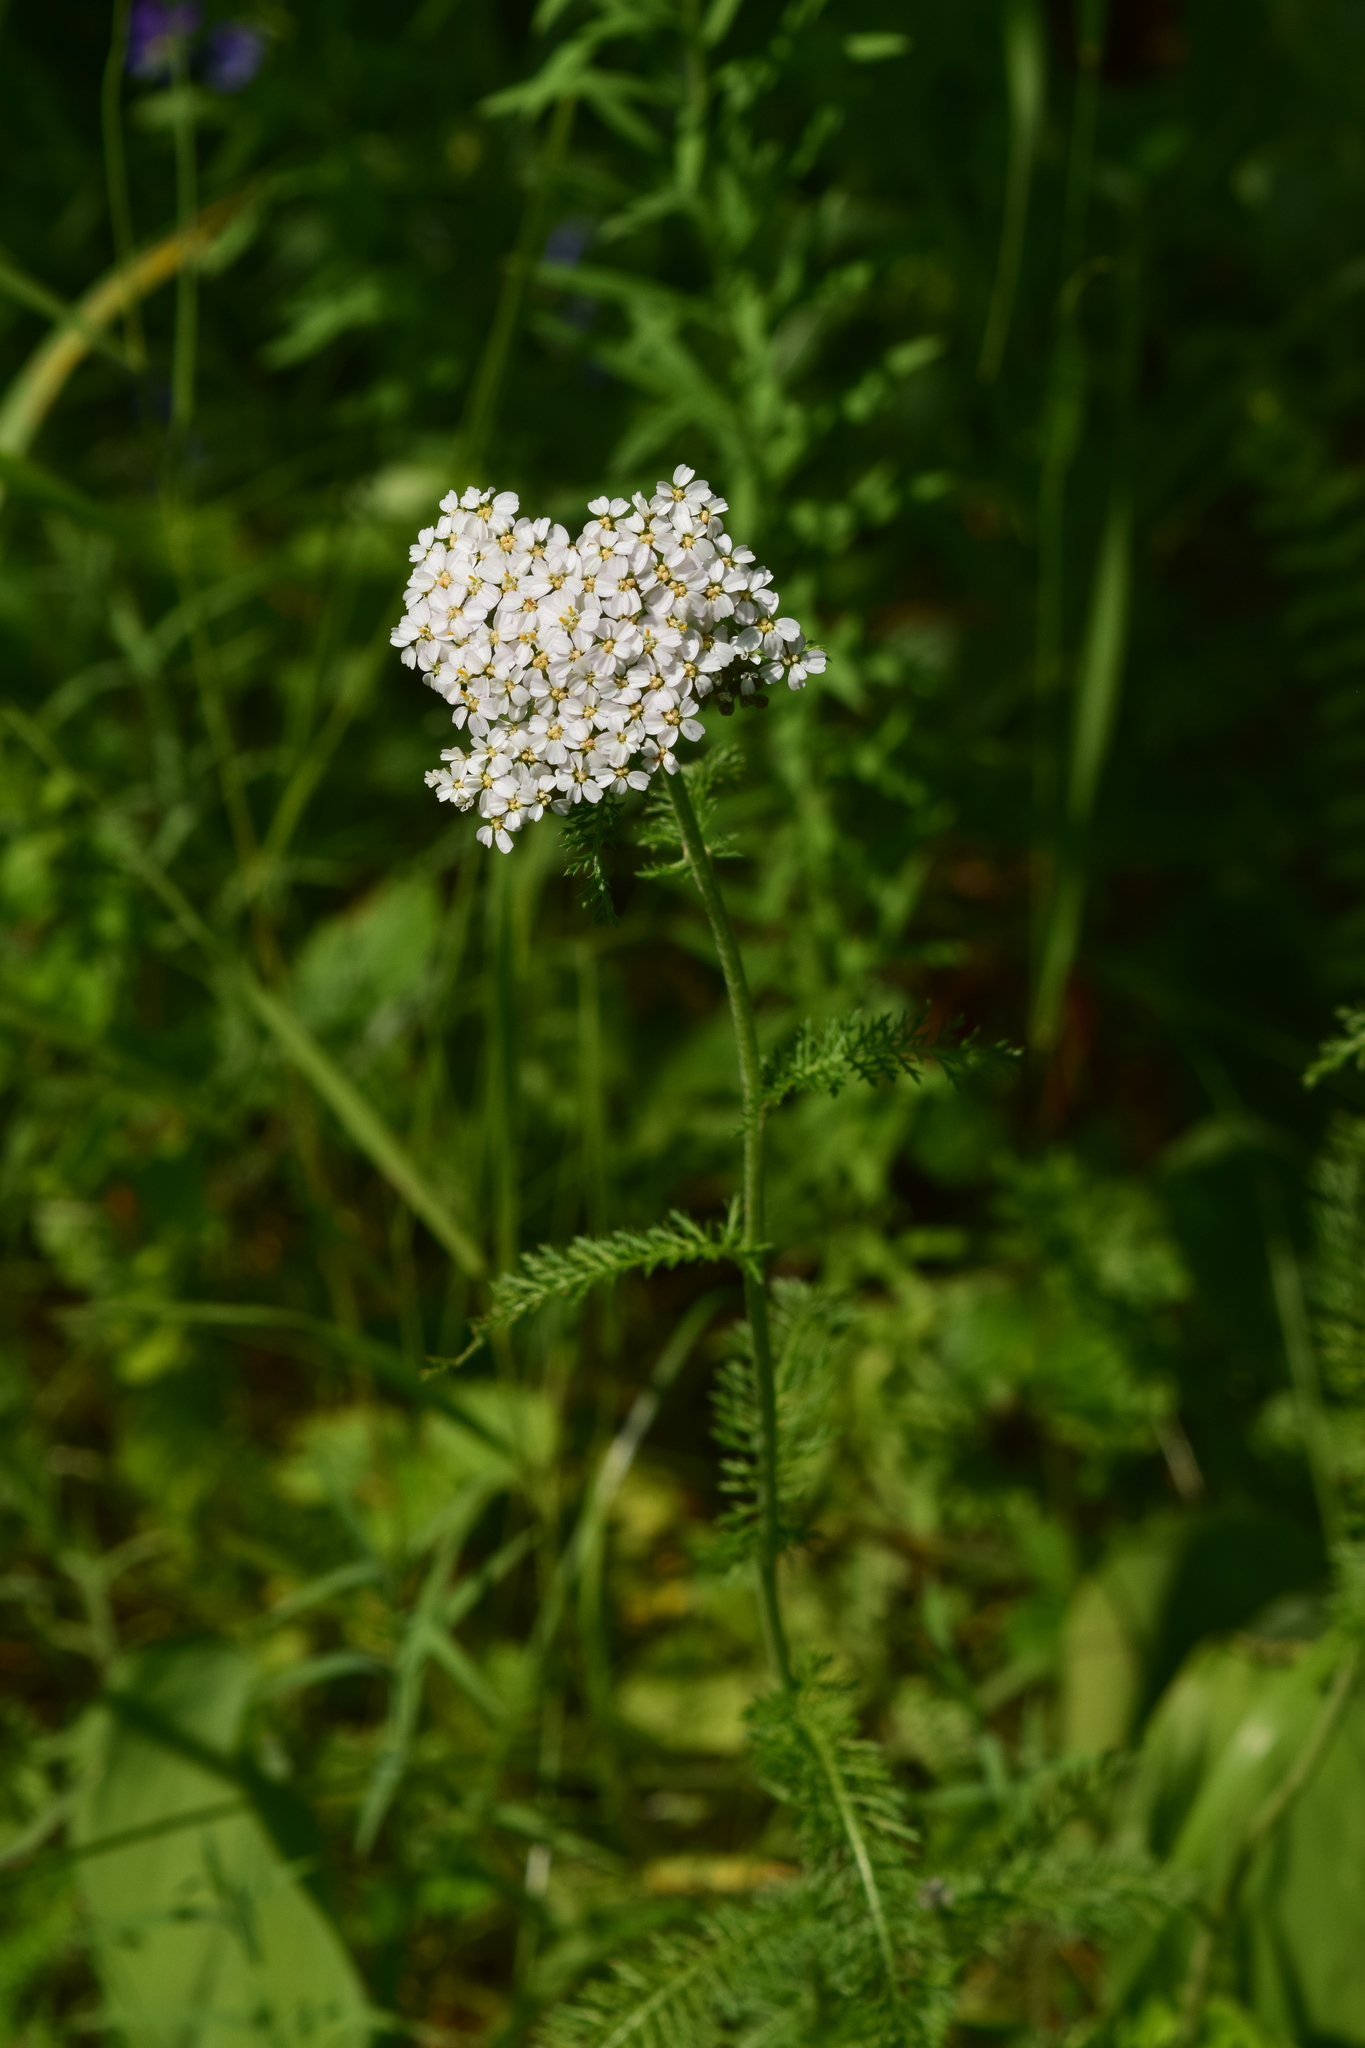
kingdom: Plantae
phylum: Tracheophyta
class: Magnoliopsida
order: Asterales
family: Asteraceae
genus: Achillea
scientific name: Achillea millefolium
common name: Yarrow
